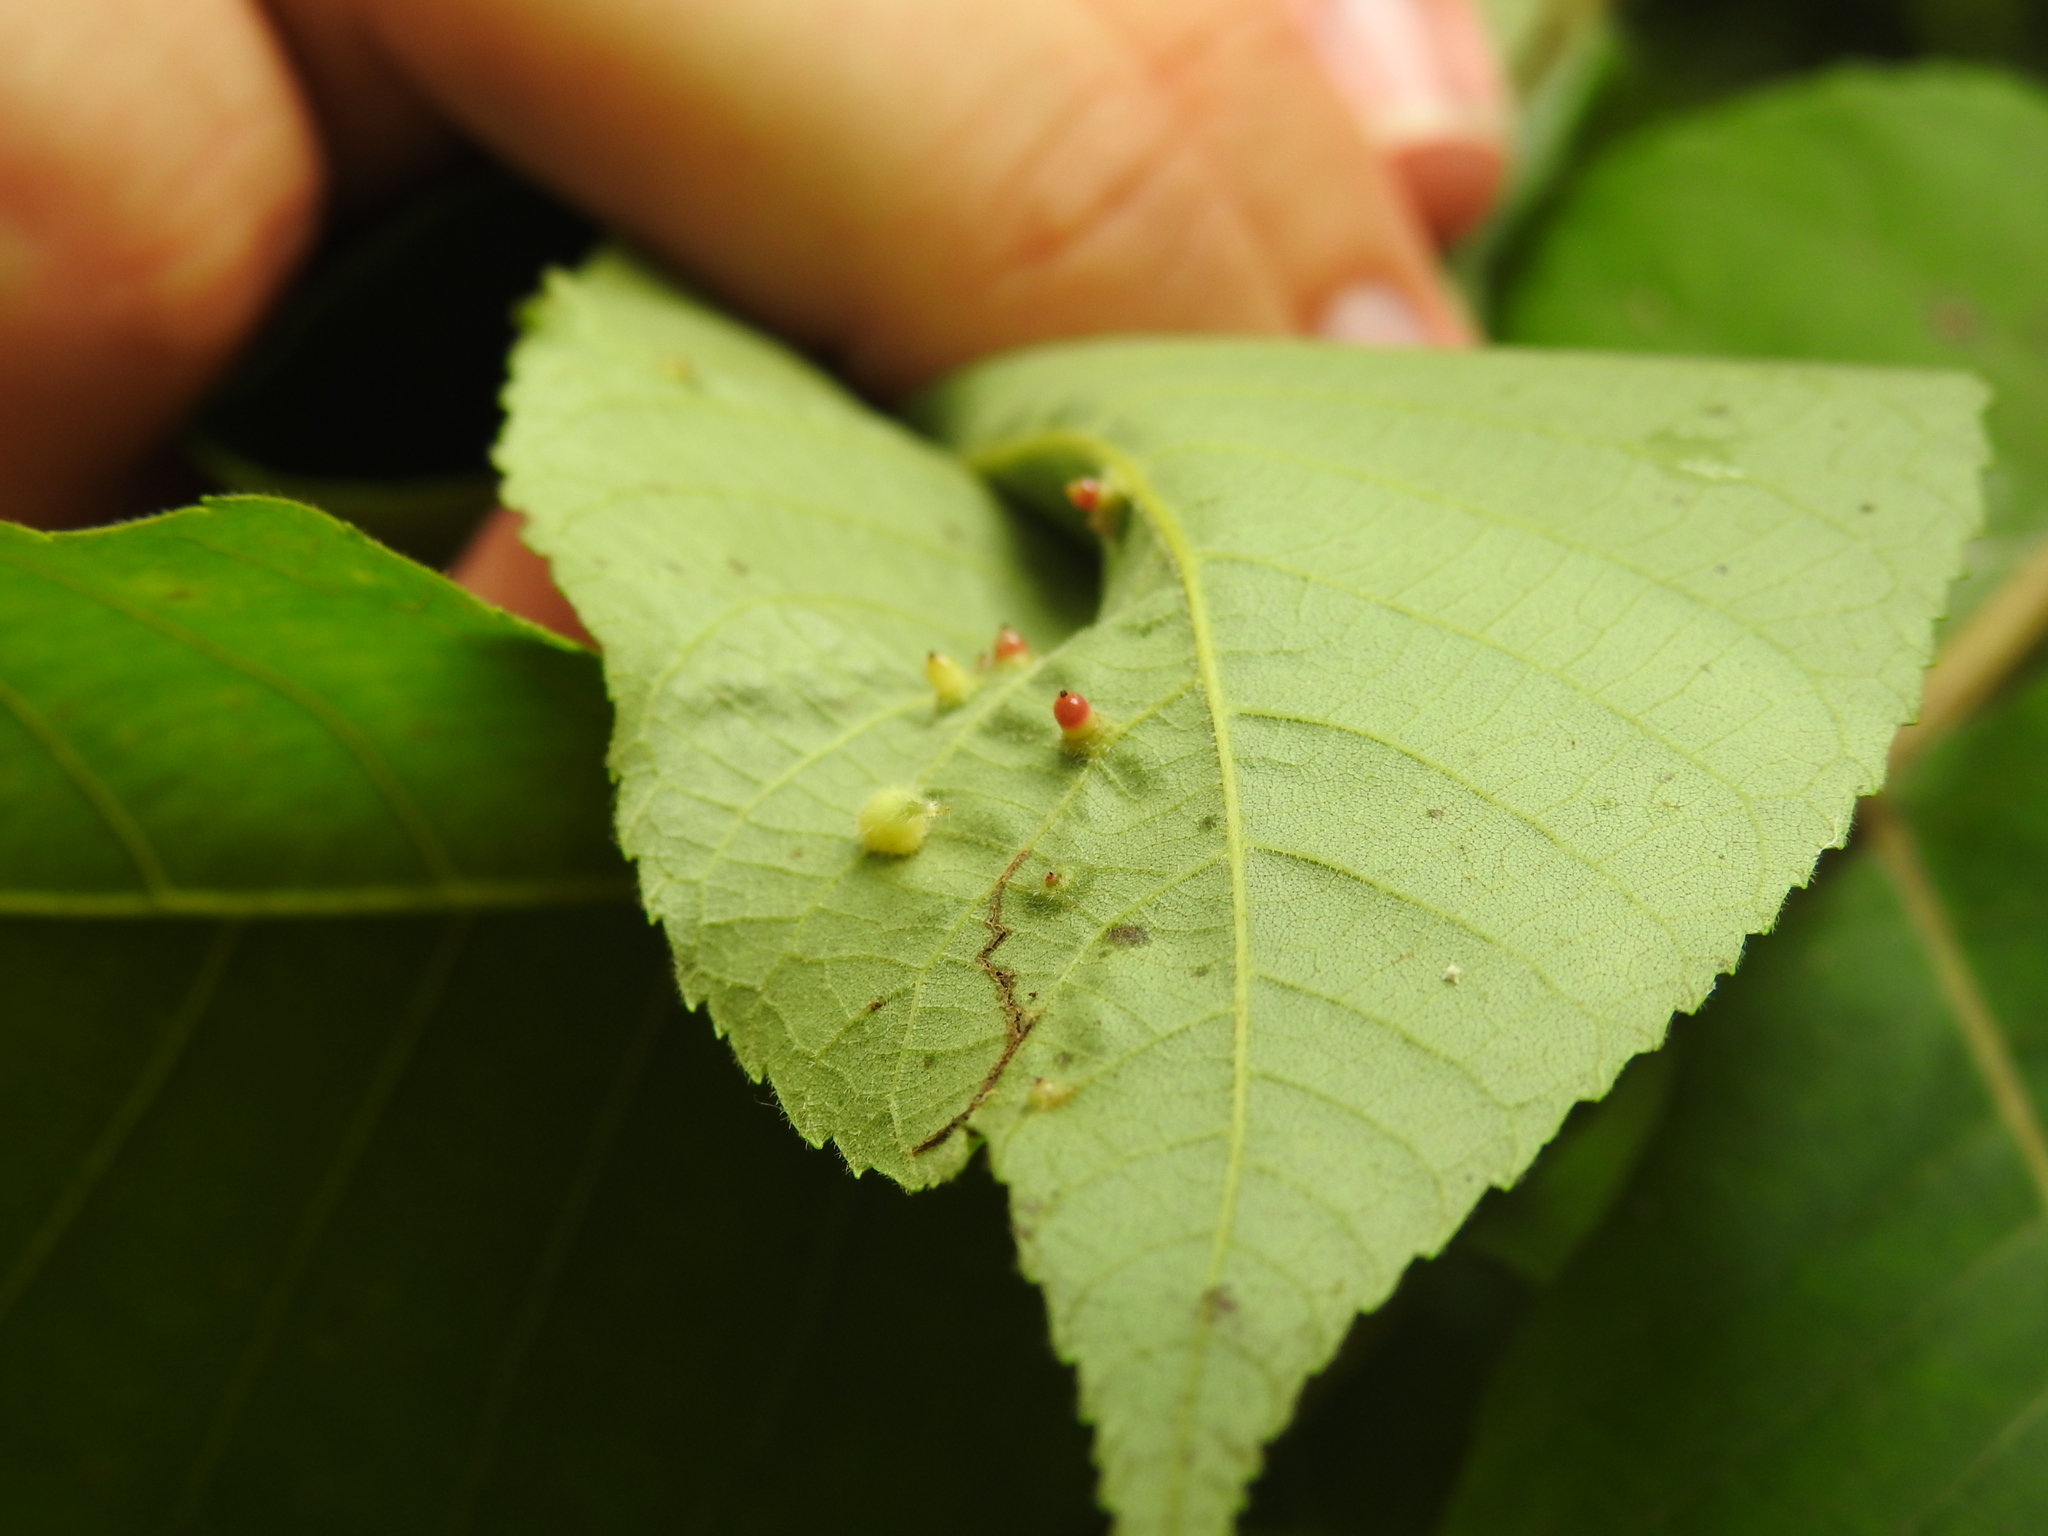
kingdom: Animalia
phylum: Arthropoda
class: Insecta
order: Diptera
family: Cecidomyiidae
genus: Caryomyia
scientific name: Caryomyia tubicola
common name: Hickory bullet gall midge
